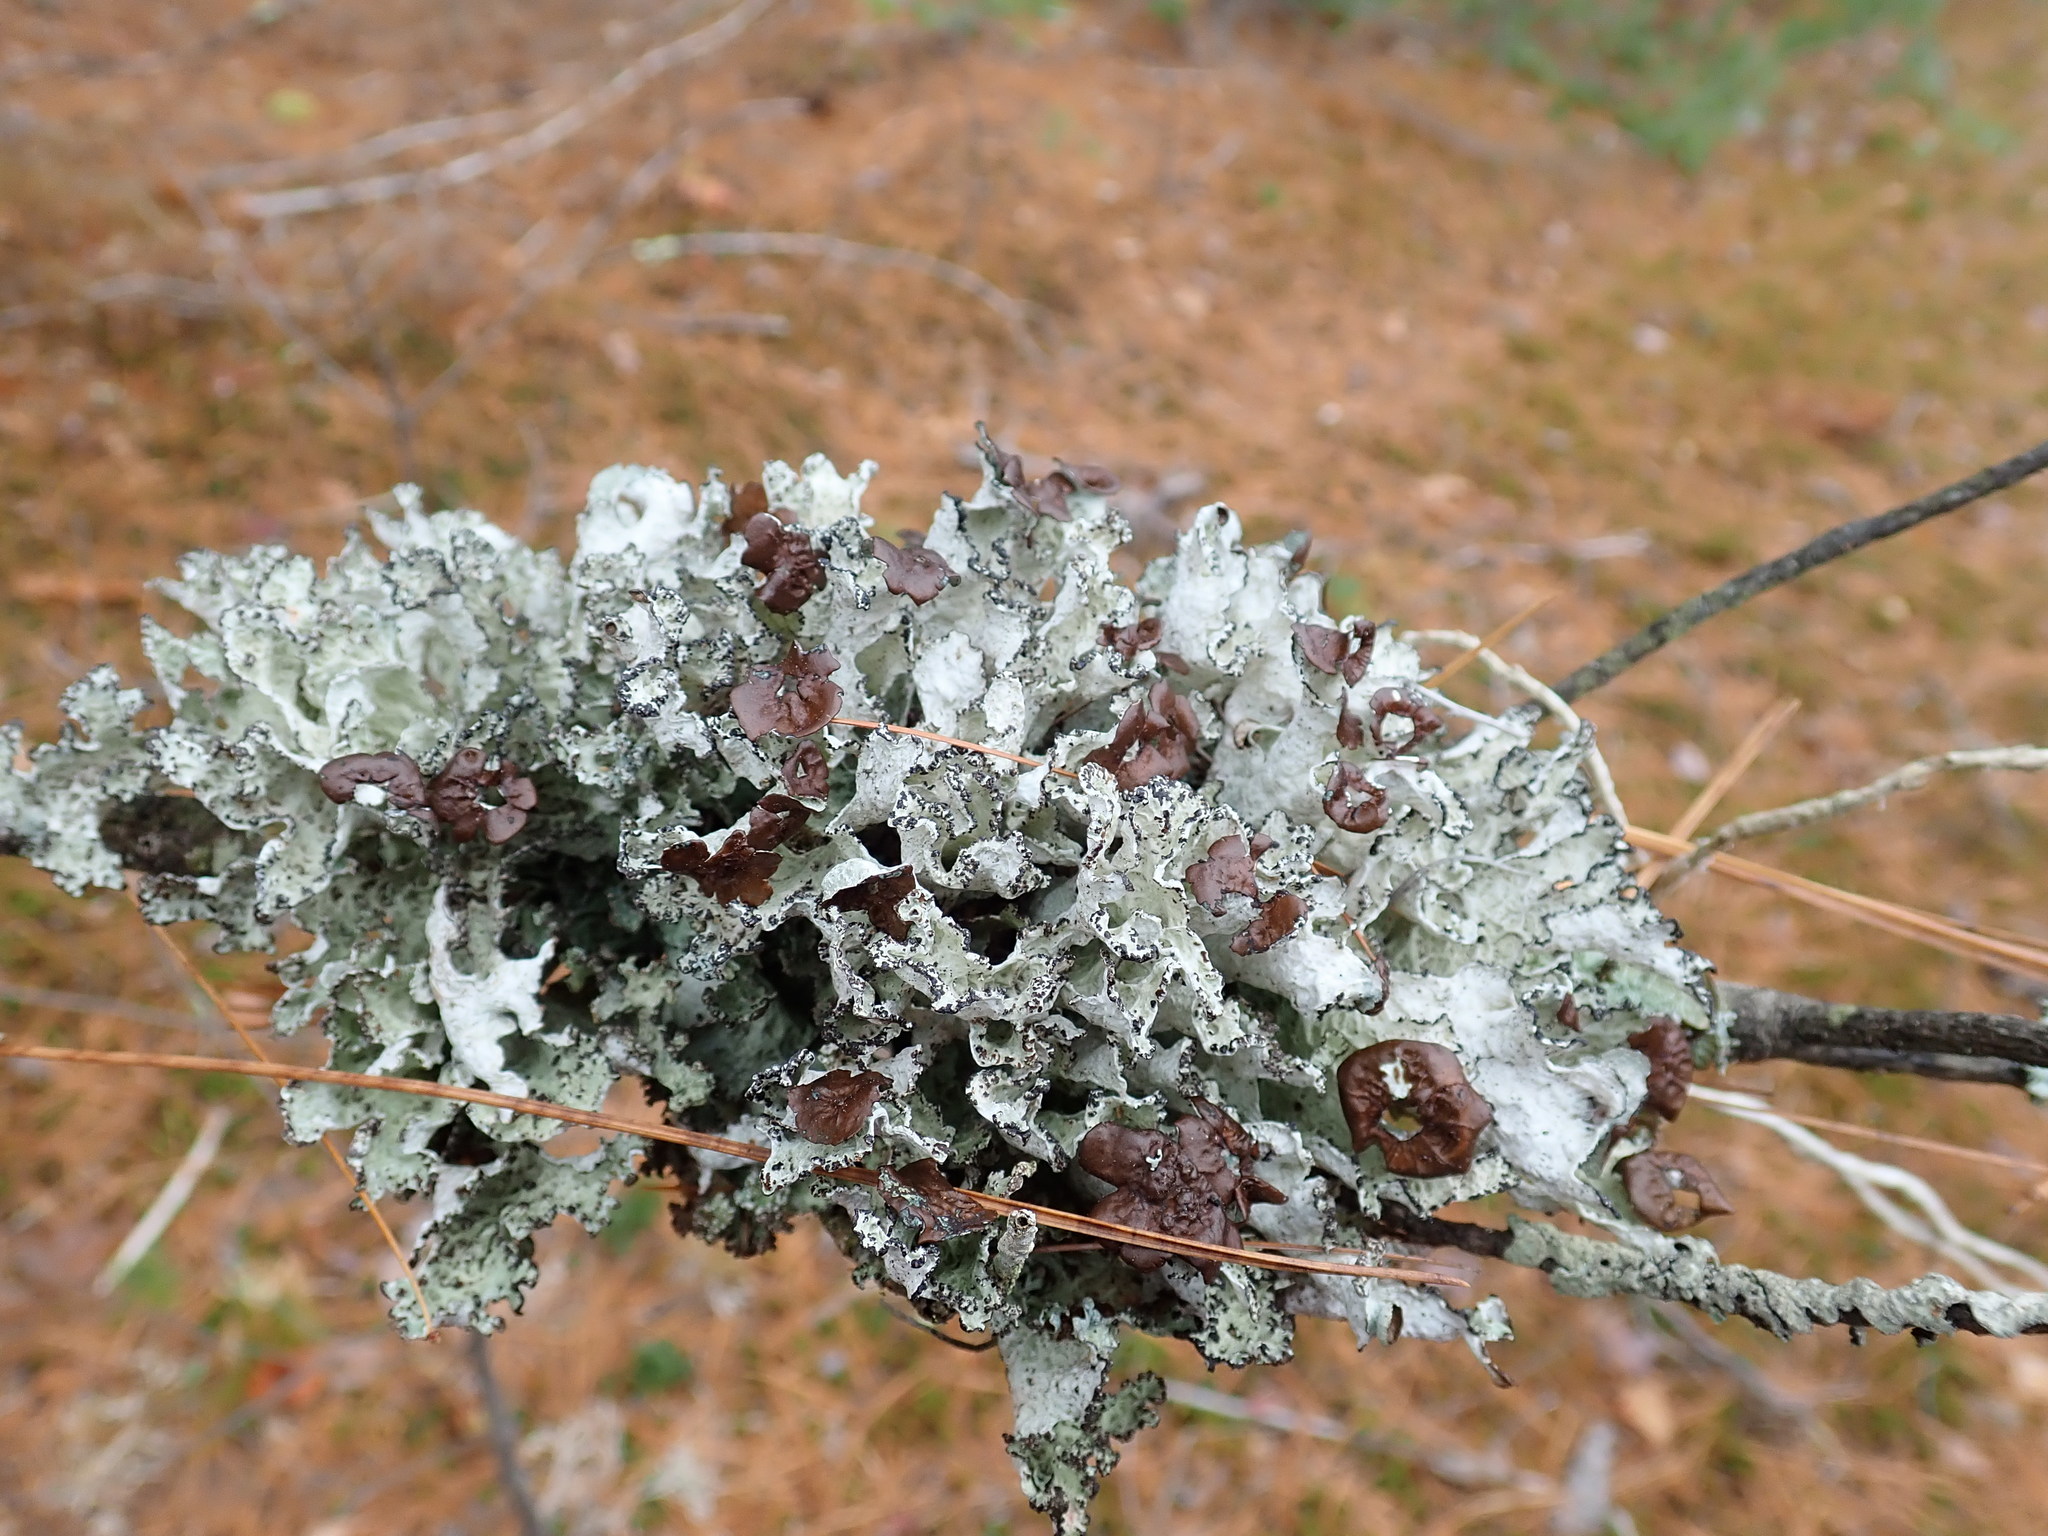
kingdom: Fungi
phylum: Ascomycota
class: Lecanoromycetes
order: Lecanorales
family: Parmeliaceae
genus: Platismatia
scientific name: Platismatia tuckermanii
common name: Crumpled rag lichen
